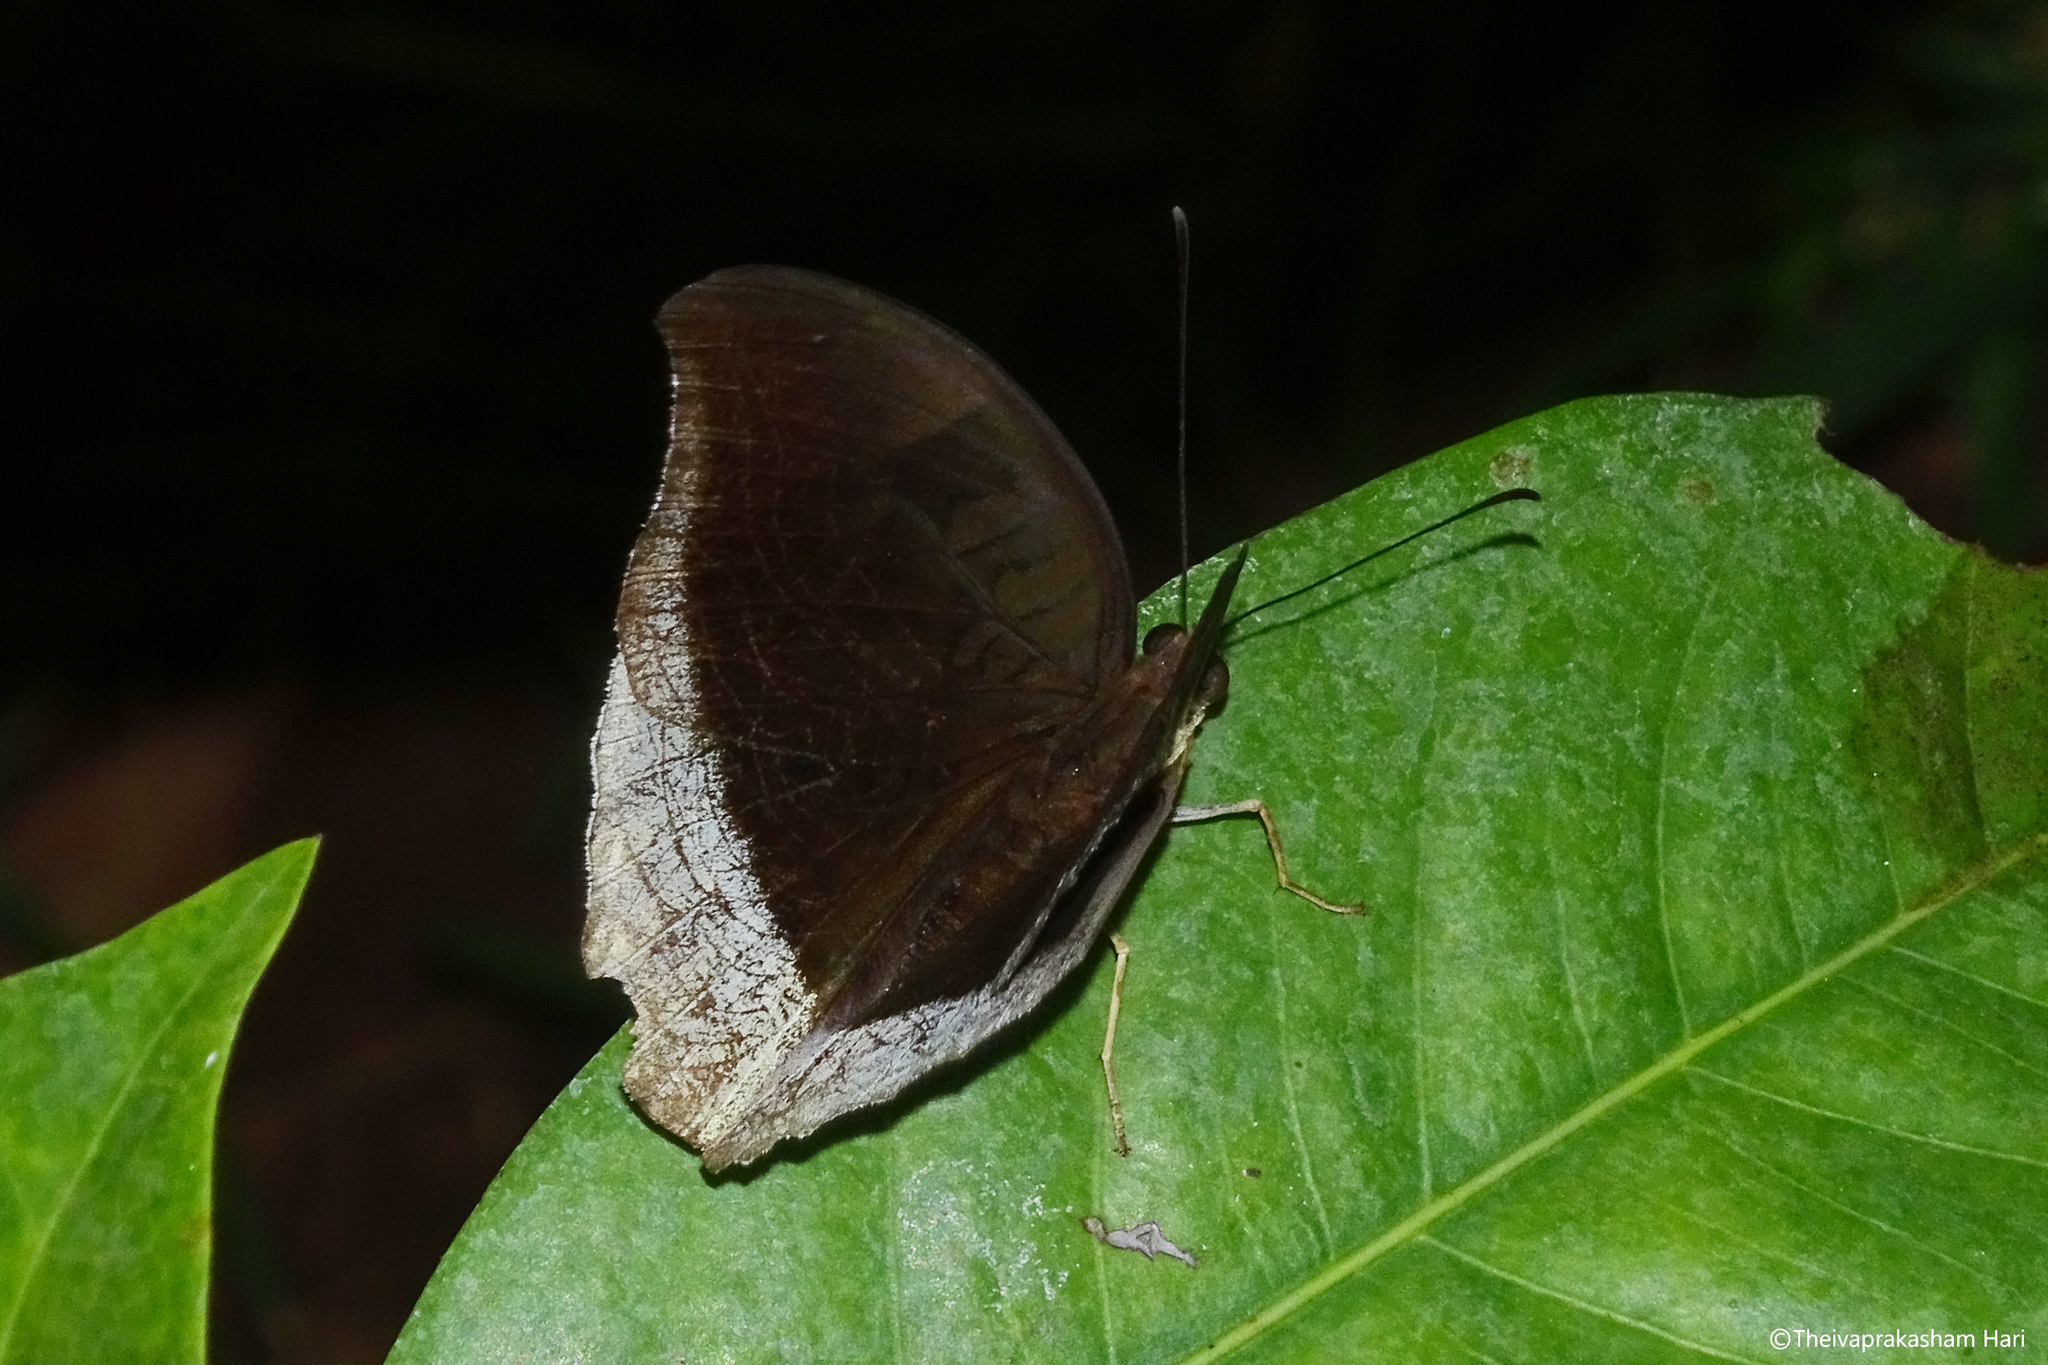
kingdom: Animalia
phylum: Arthropoda
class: Insecta
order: Lepidoptera
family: Nymphalidae
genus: Tanaecia
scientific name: Tanaecia lepidea
